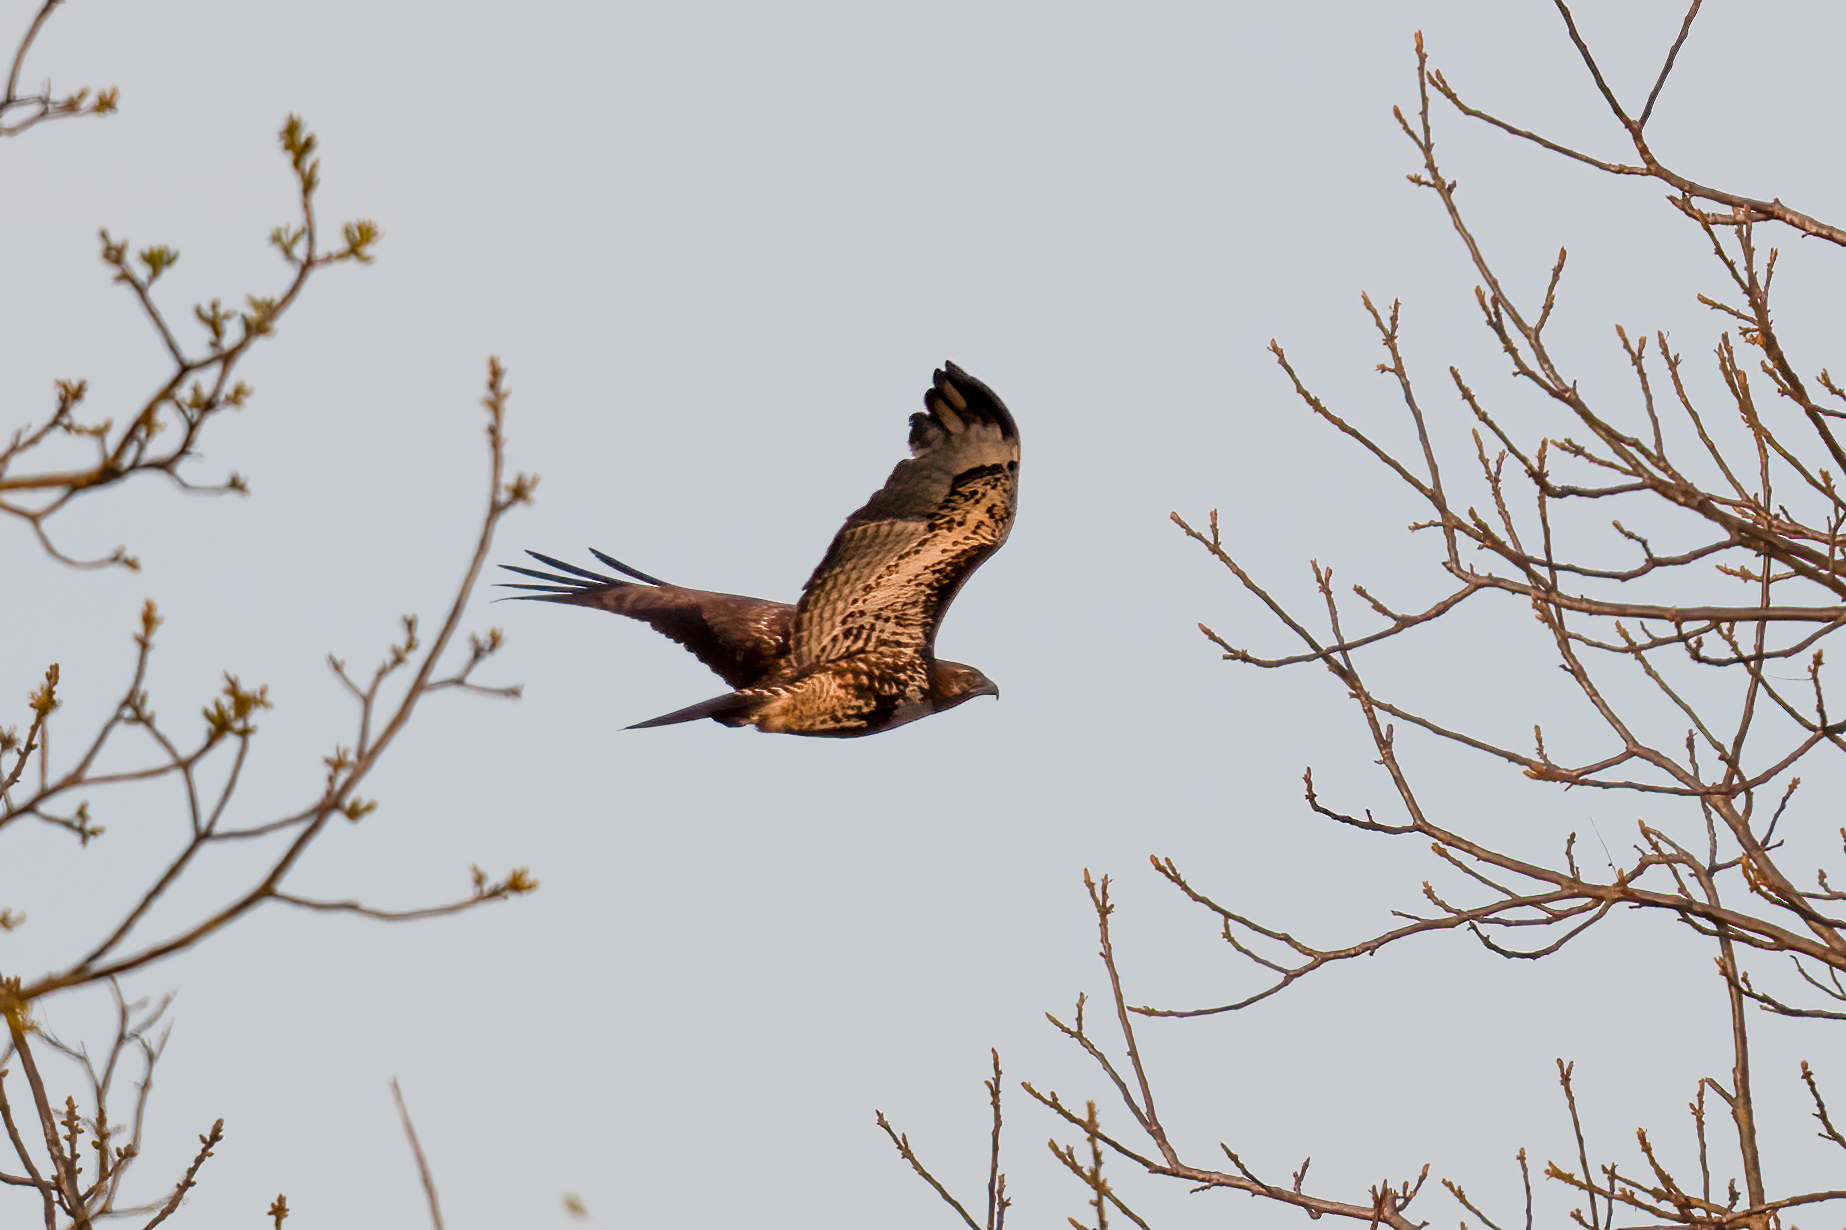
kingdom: Animalia
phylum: Chordata
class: Aves
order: Accipitriformes
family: Accipitridae
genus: Buteo
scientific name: Buteo jamaicensis
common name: Red-tailed hawk
